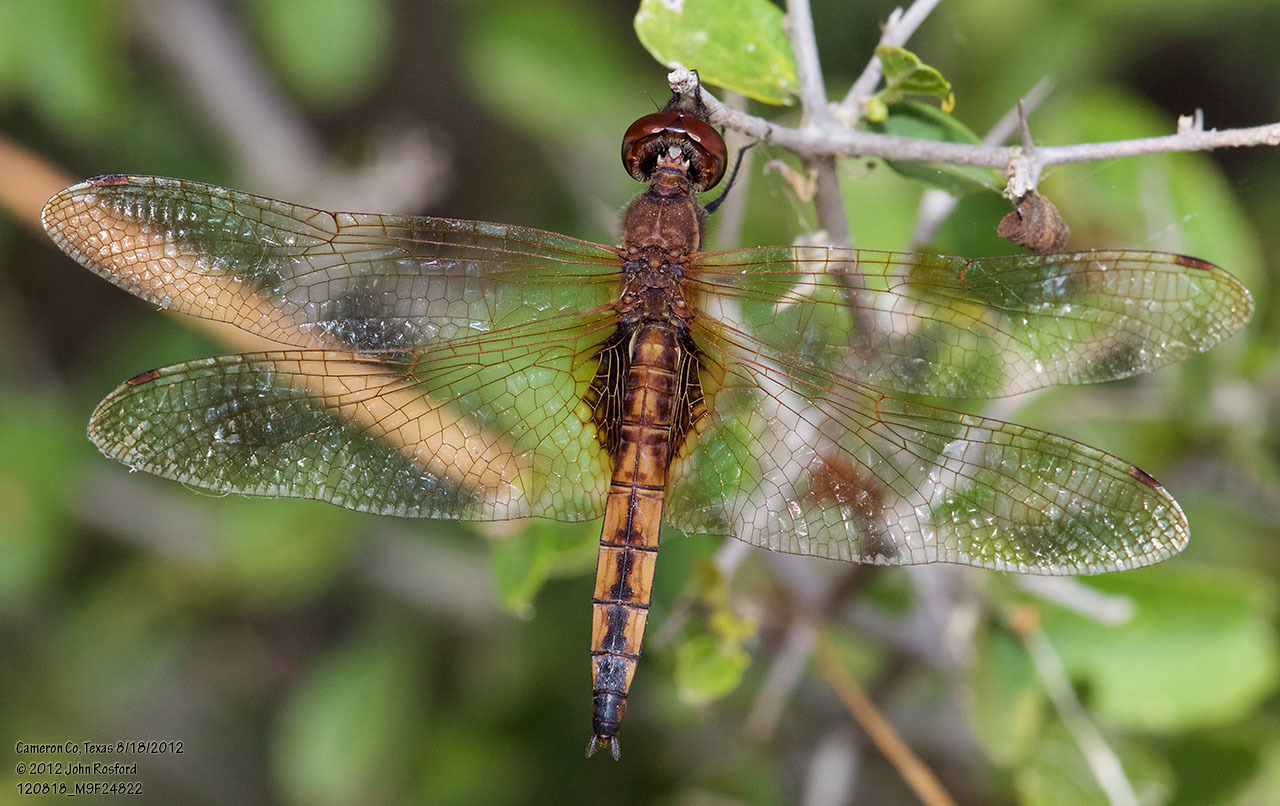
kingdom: Animalia
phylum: Arthropoda
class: Insecta
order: Odonata
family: Libellulidae
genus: Miathyria
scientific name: Miathyria marcella
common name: Hyacinth glider
